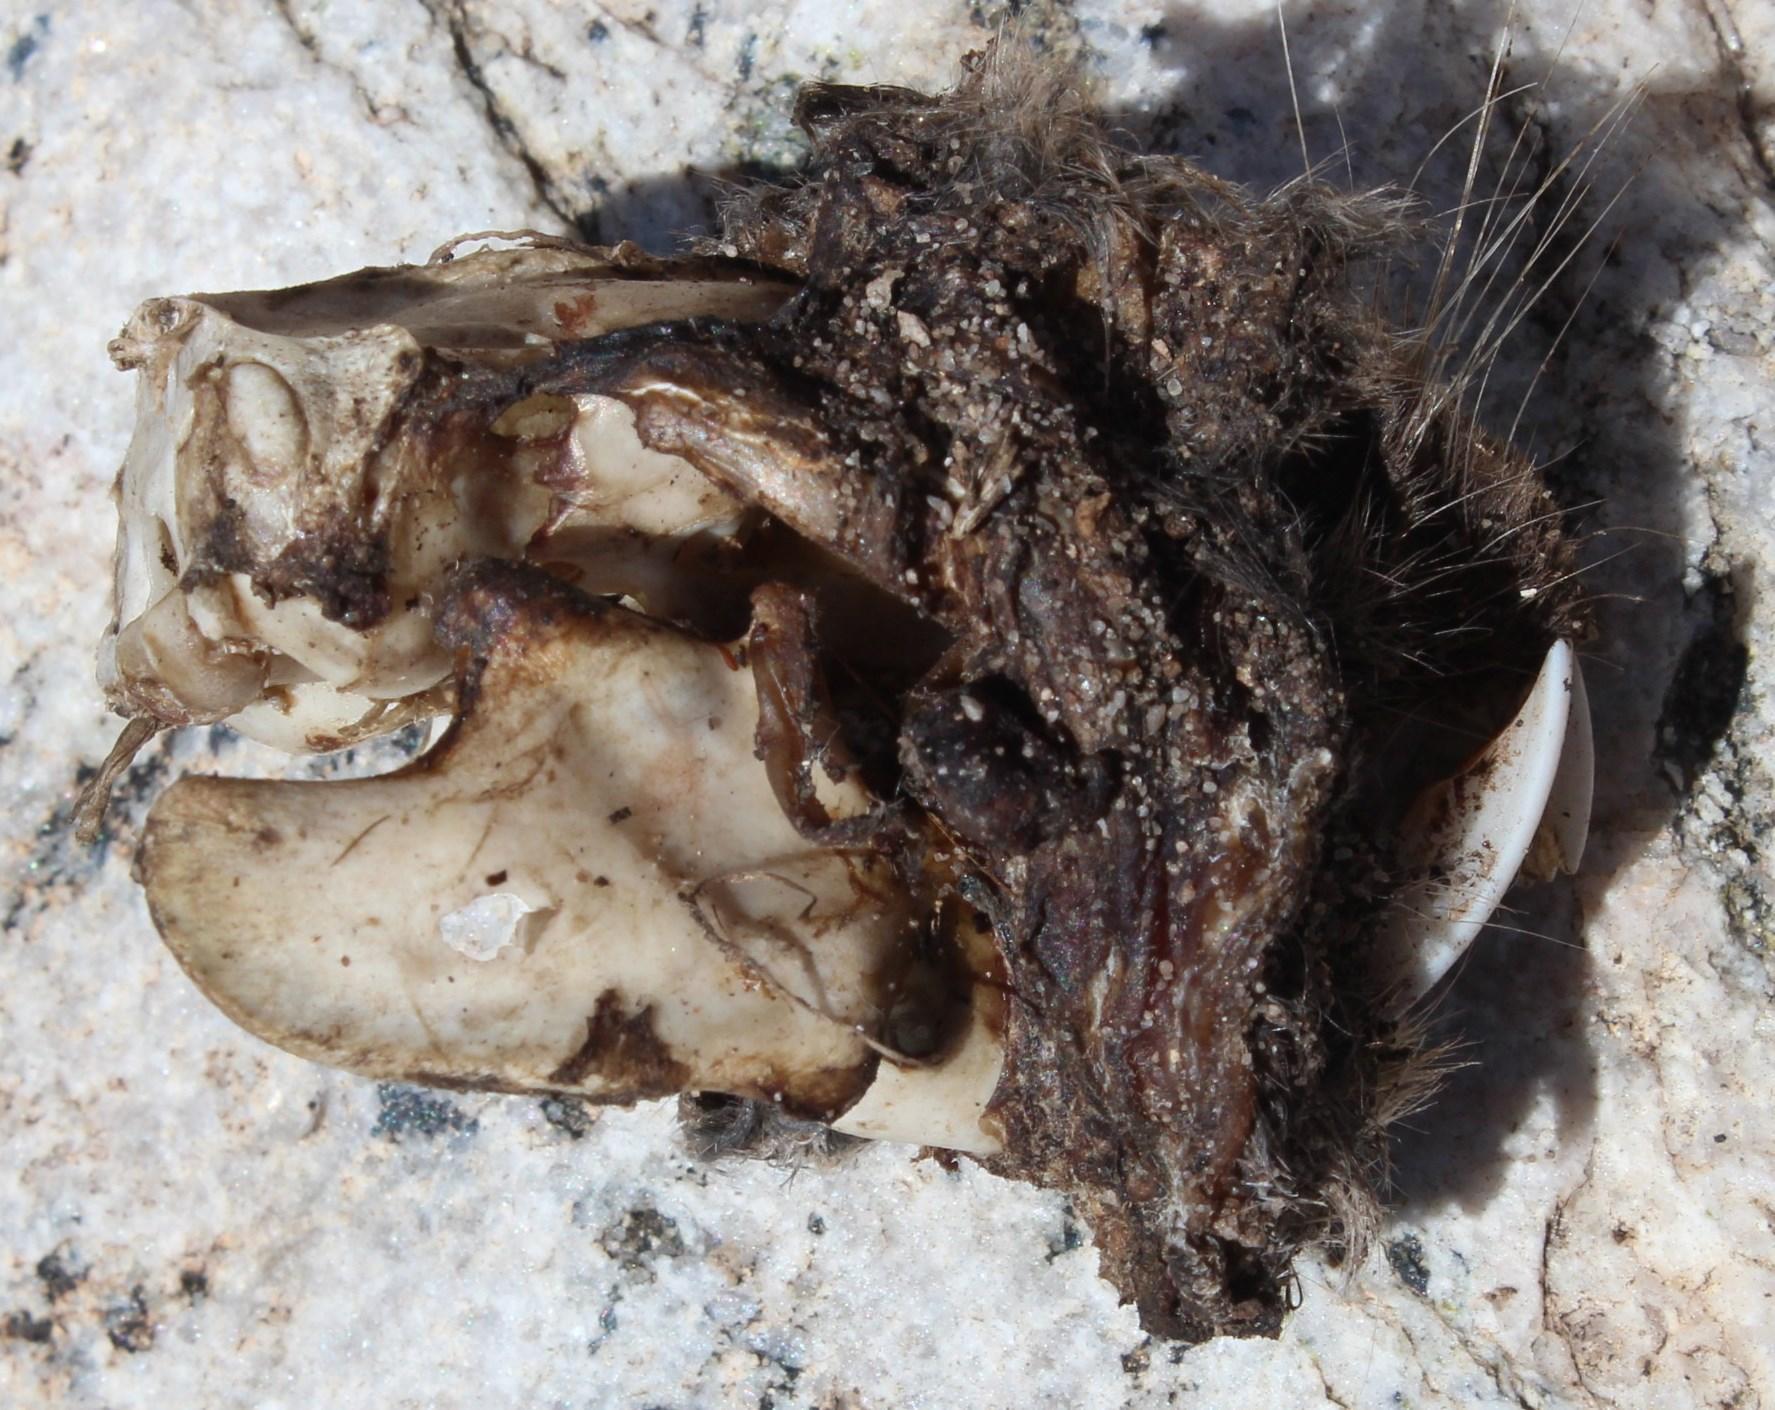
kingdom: Animalia
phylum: Chordata
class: Mammalia
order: Rodentia
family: Bathyergidae
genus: Bathyergus
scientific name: Bathyergus janetta
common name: Namaqua dune mole-rat
